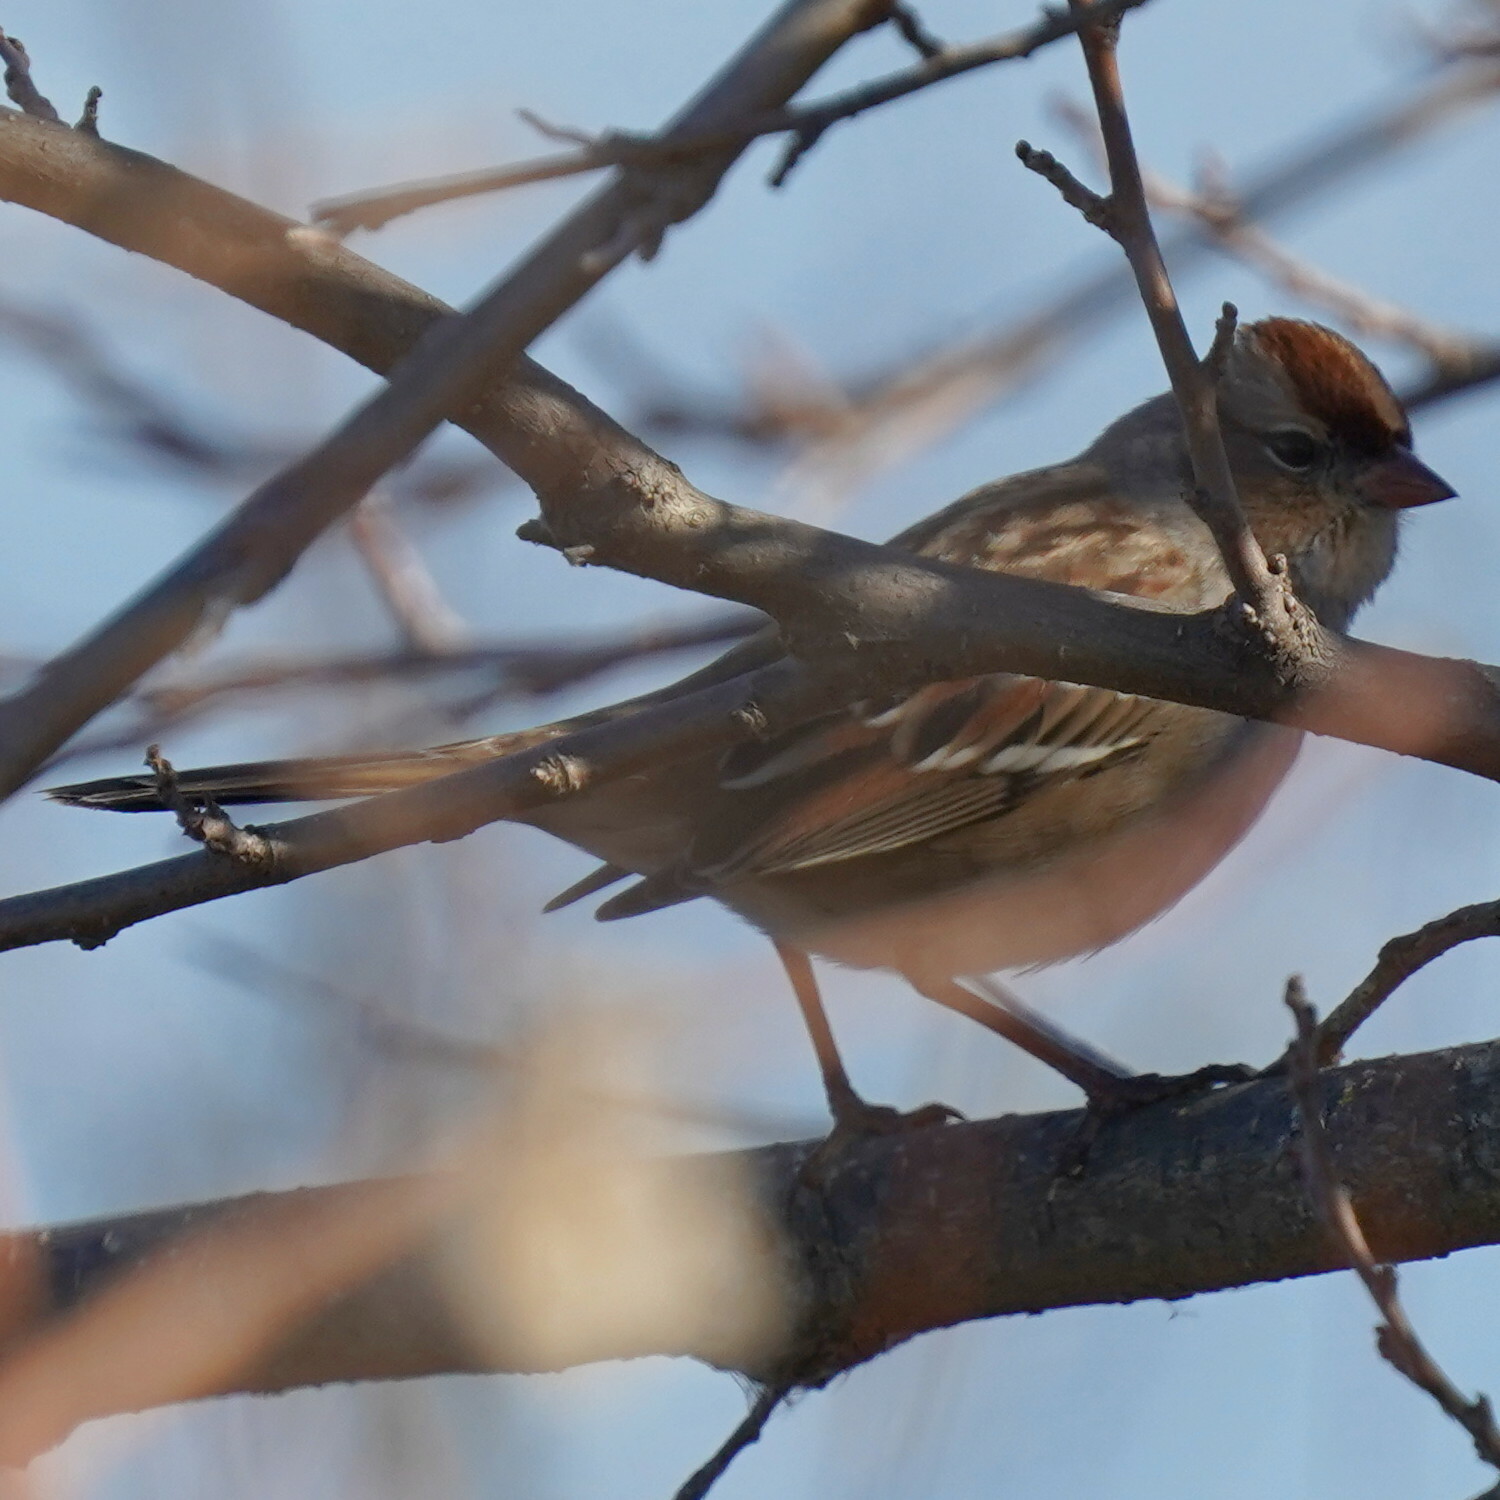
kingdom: Animalia
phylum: Chordata
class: Aves
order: Passeriformes
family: Passerellidae
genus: Zonotrichia
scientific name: Zonotrichia leucophrys
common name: White-crowned sparrow
